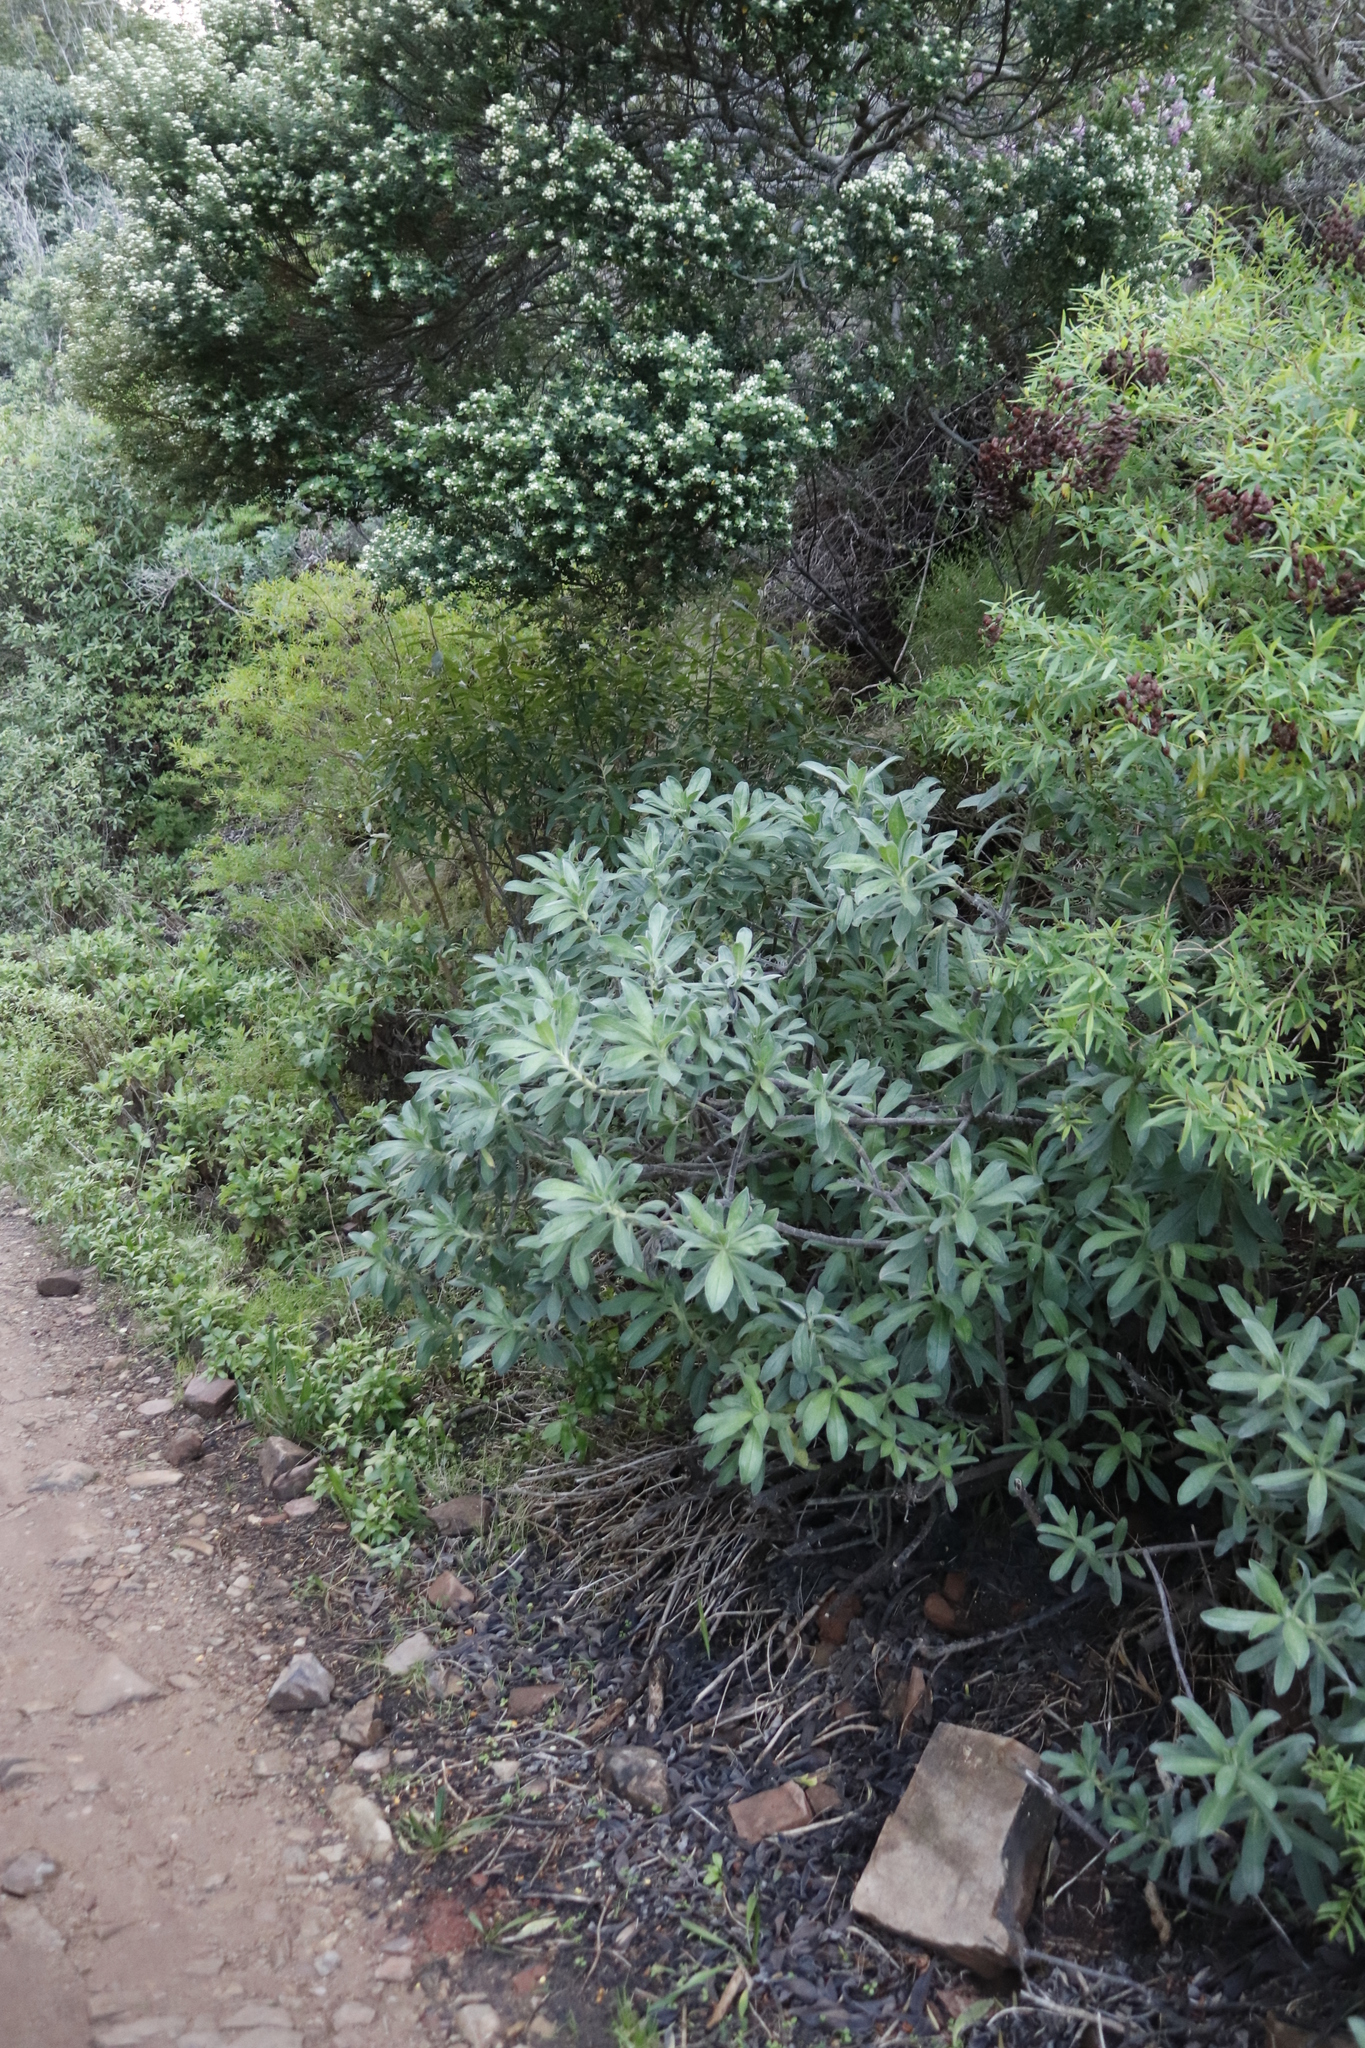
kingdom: Plantae
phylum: Tracheophyta
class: Magnoliopsida
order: Boraginales
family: Boraginaceae
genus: Lobostemon
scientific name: Lobostemon montanus
